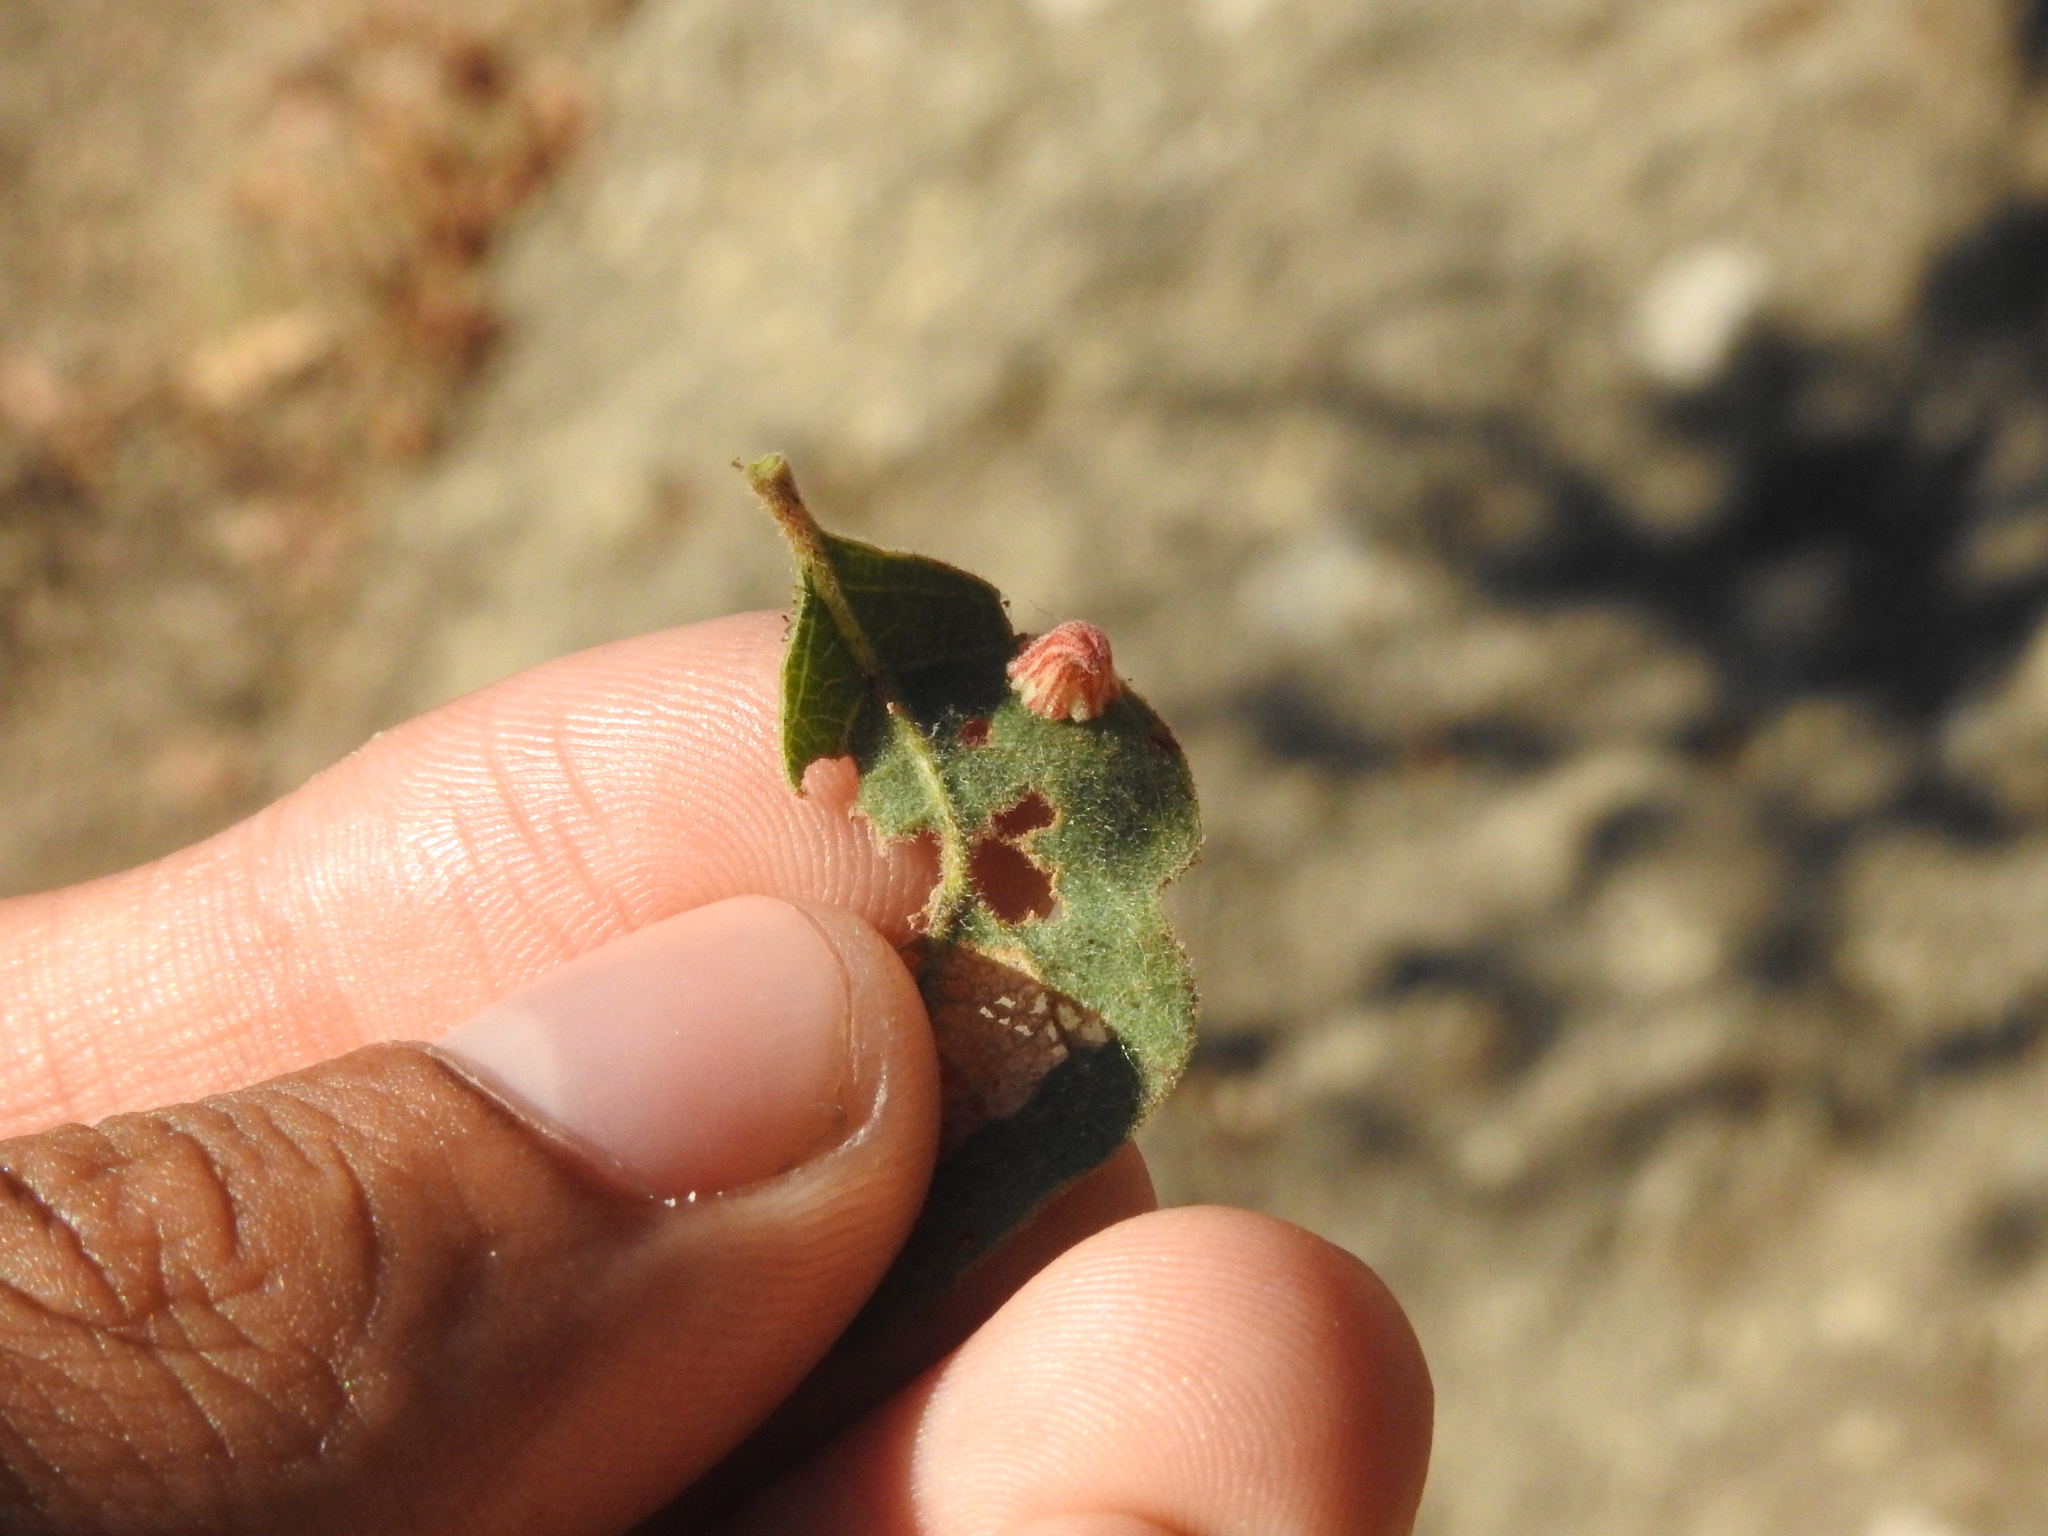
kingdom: Animalia
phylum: Arthropoda
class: Insecta
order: Hymenoptera
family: Cynipidae
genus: Andricus
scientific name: Andricus
